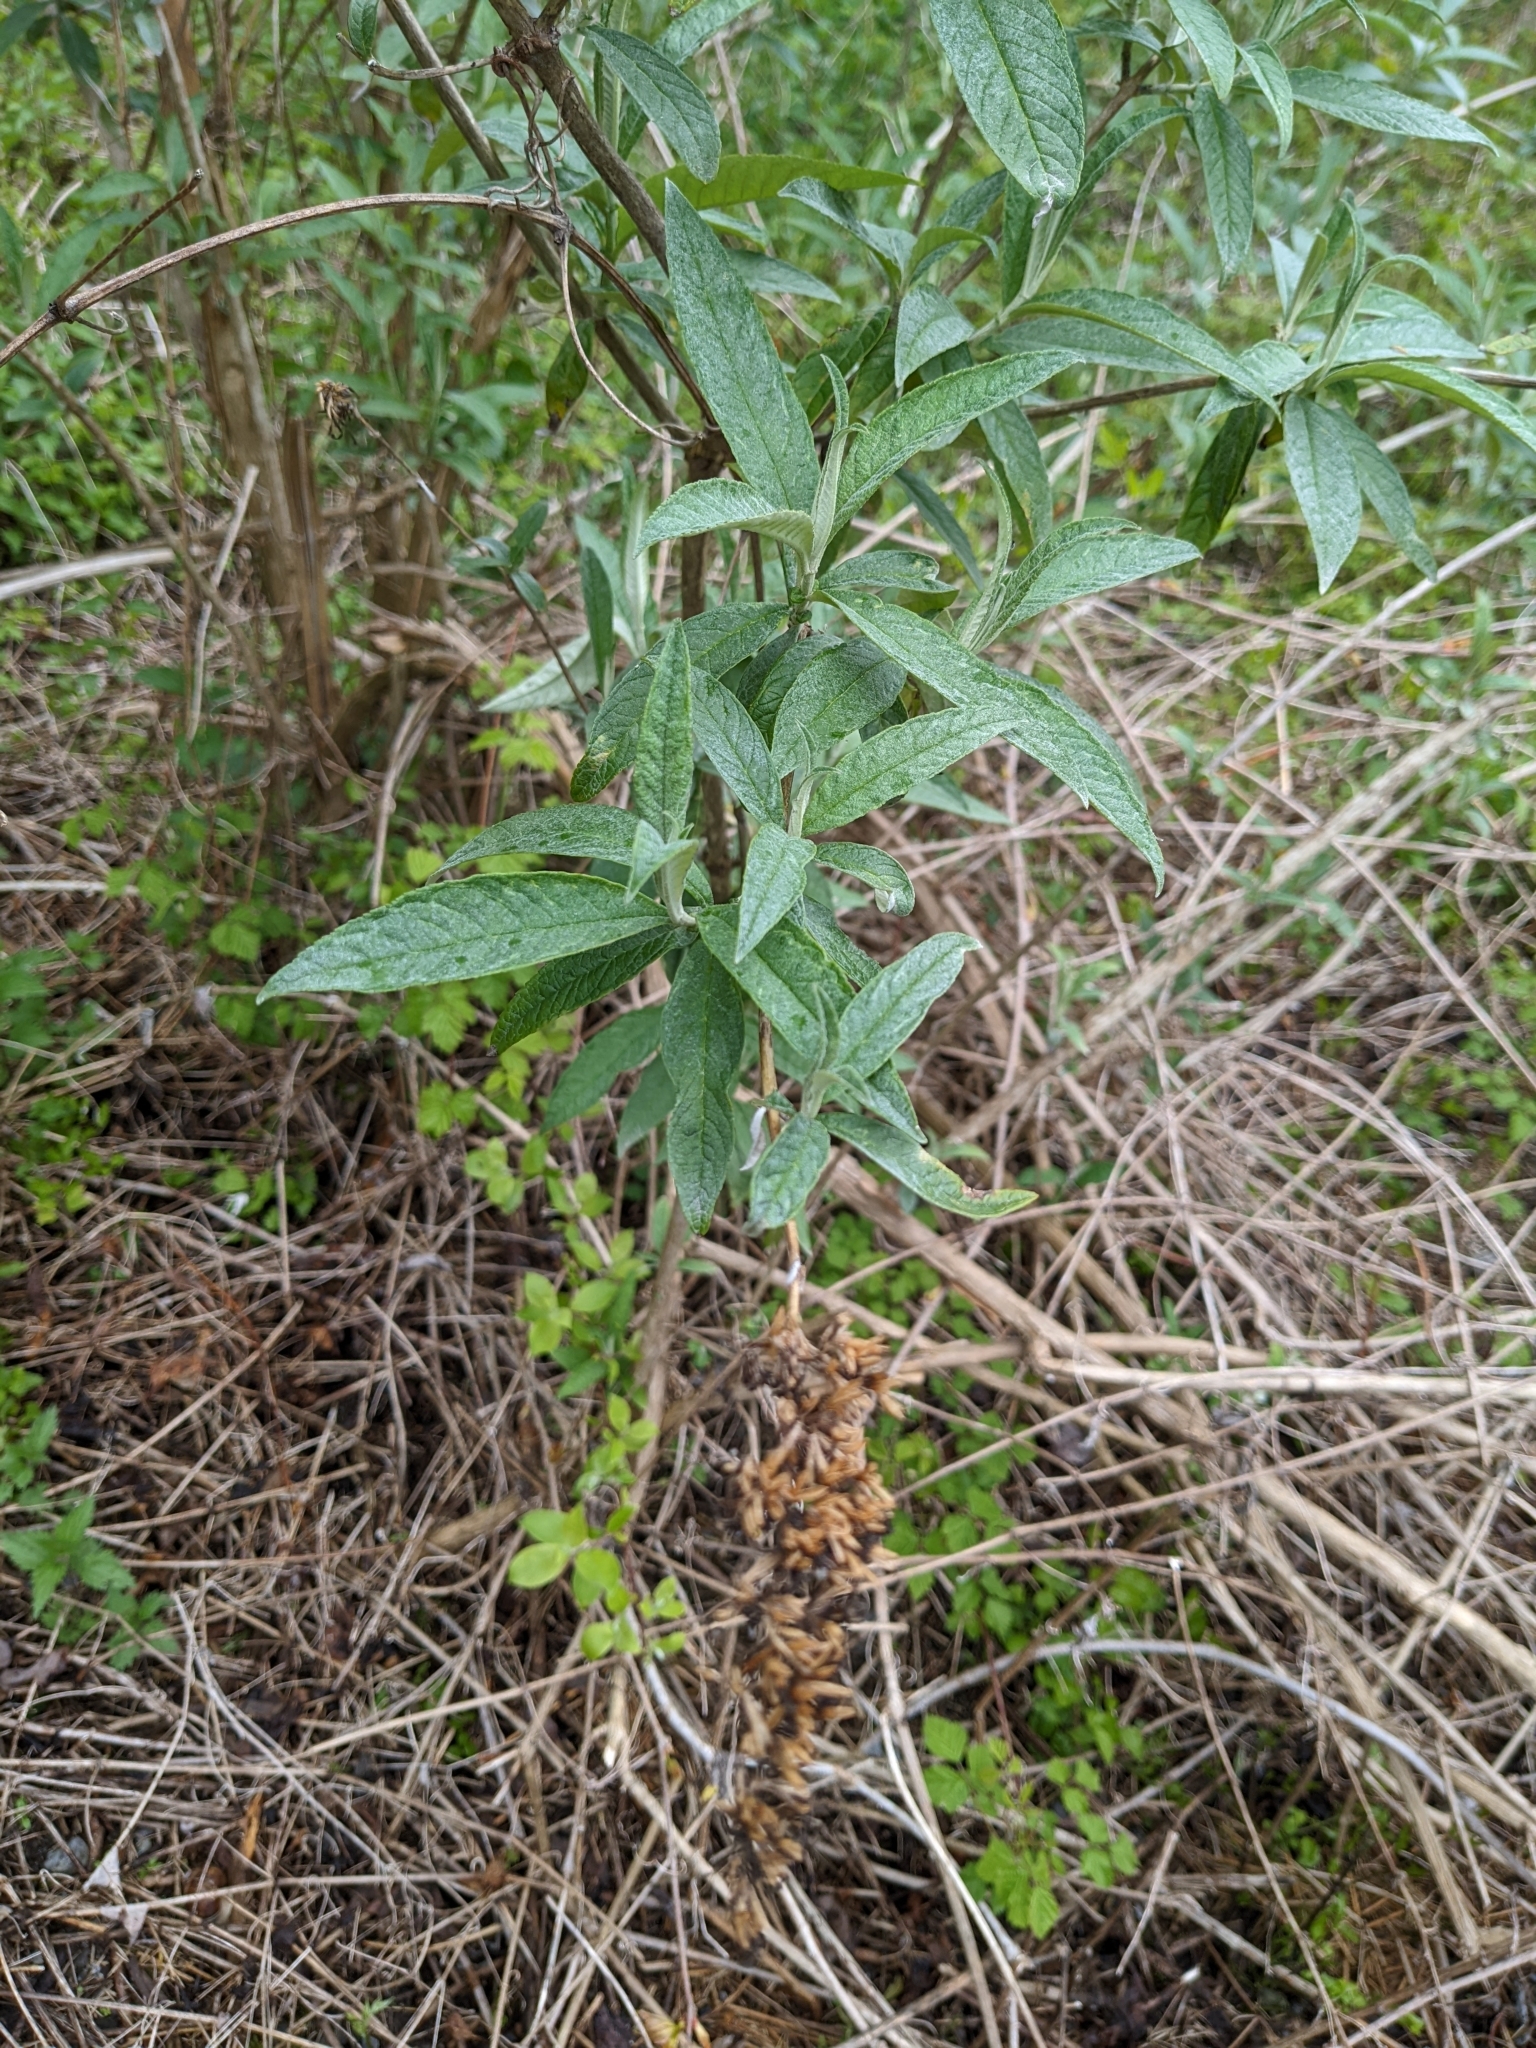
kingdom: Plantae
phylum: Tracheophyta
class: Magnoliopsida
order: Lamiales
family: Scrophulariaceae
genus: Buddleja
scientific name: Buddleja davidii
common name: Butterfly-bush
